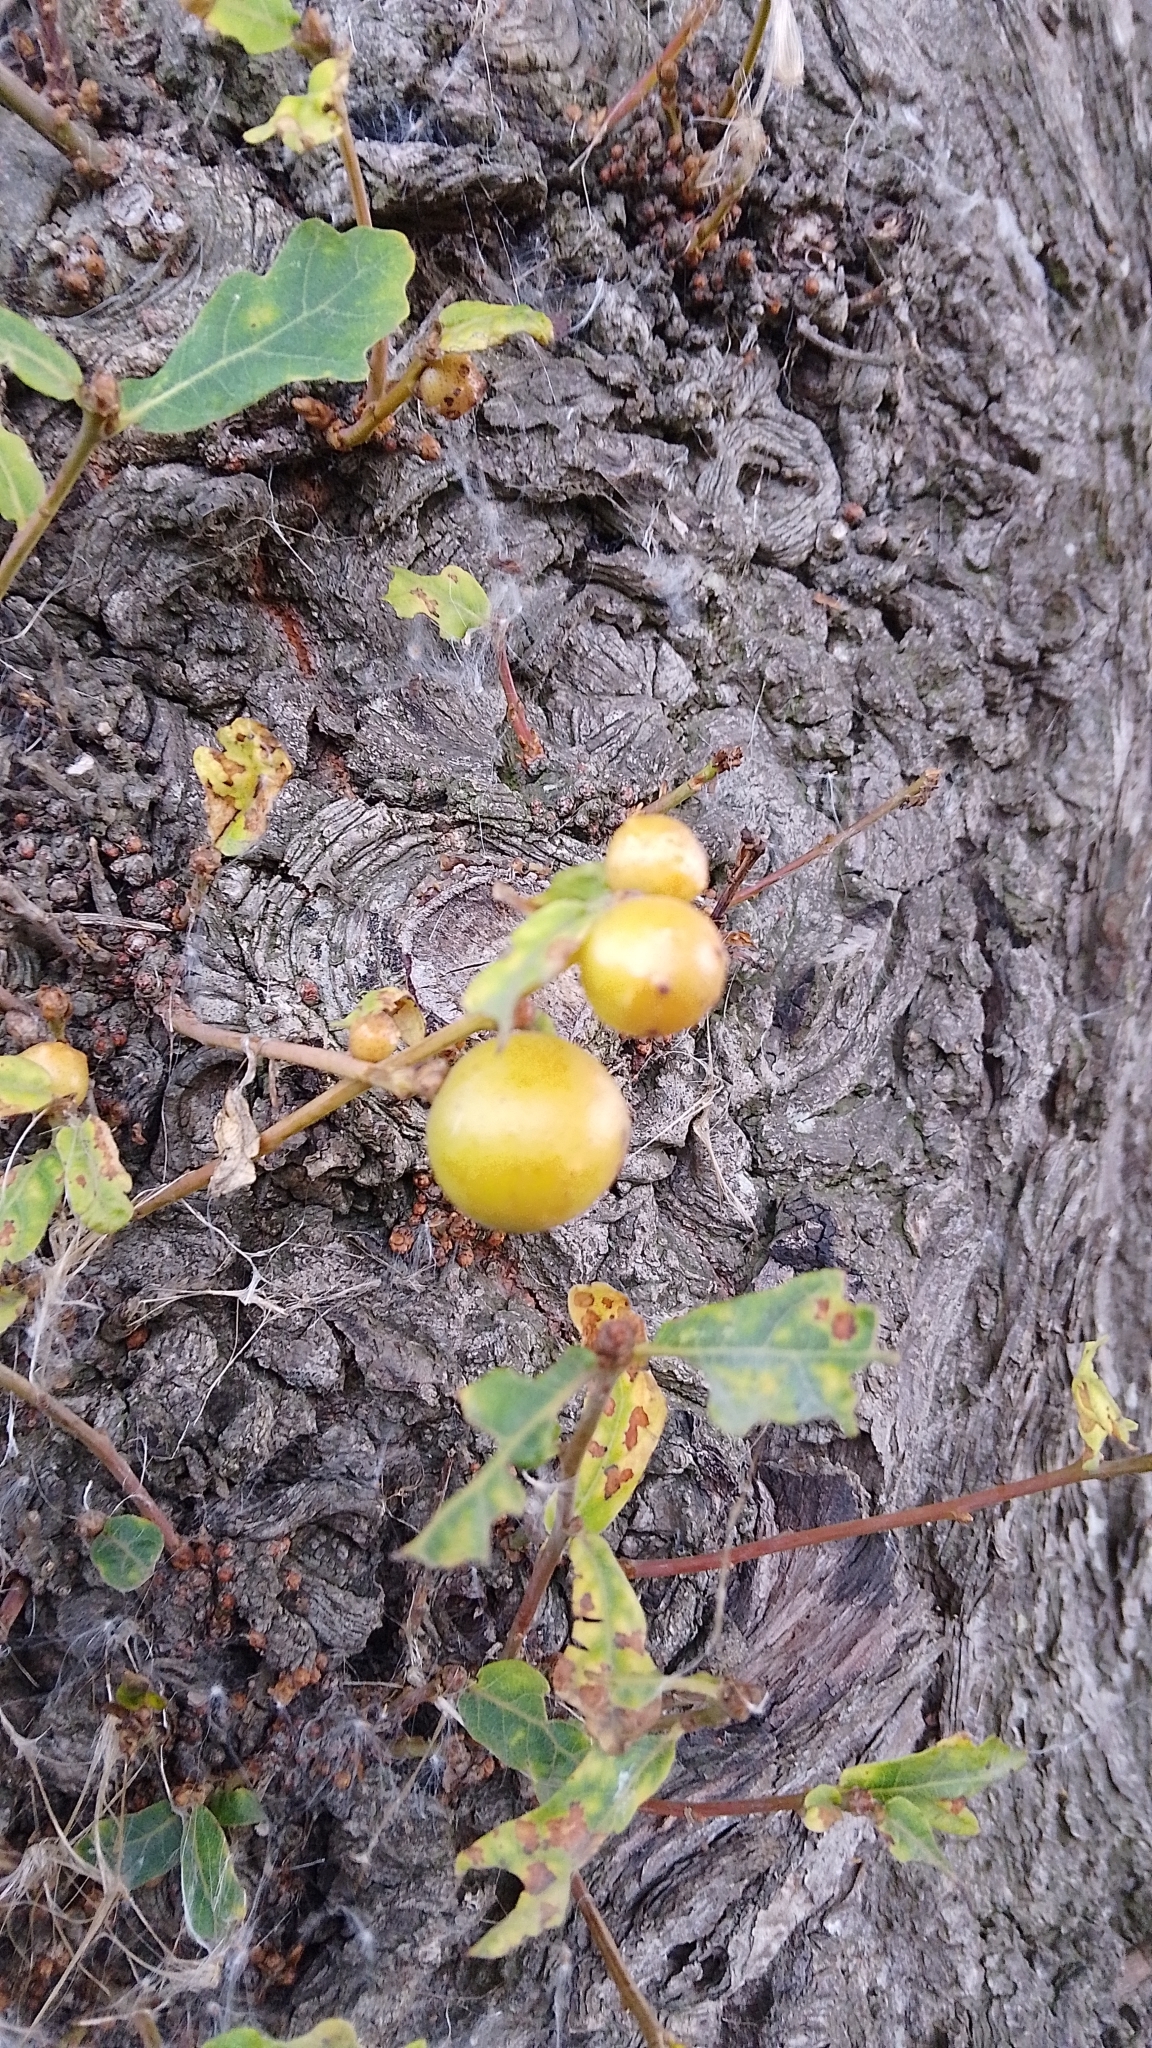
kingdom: Animalia
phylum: Arthropoda
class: Insecta
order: Hymenoptera
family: Cynipidae
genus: Andricus
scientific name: Andricus kollari
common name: Marble gall
